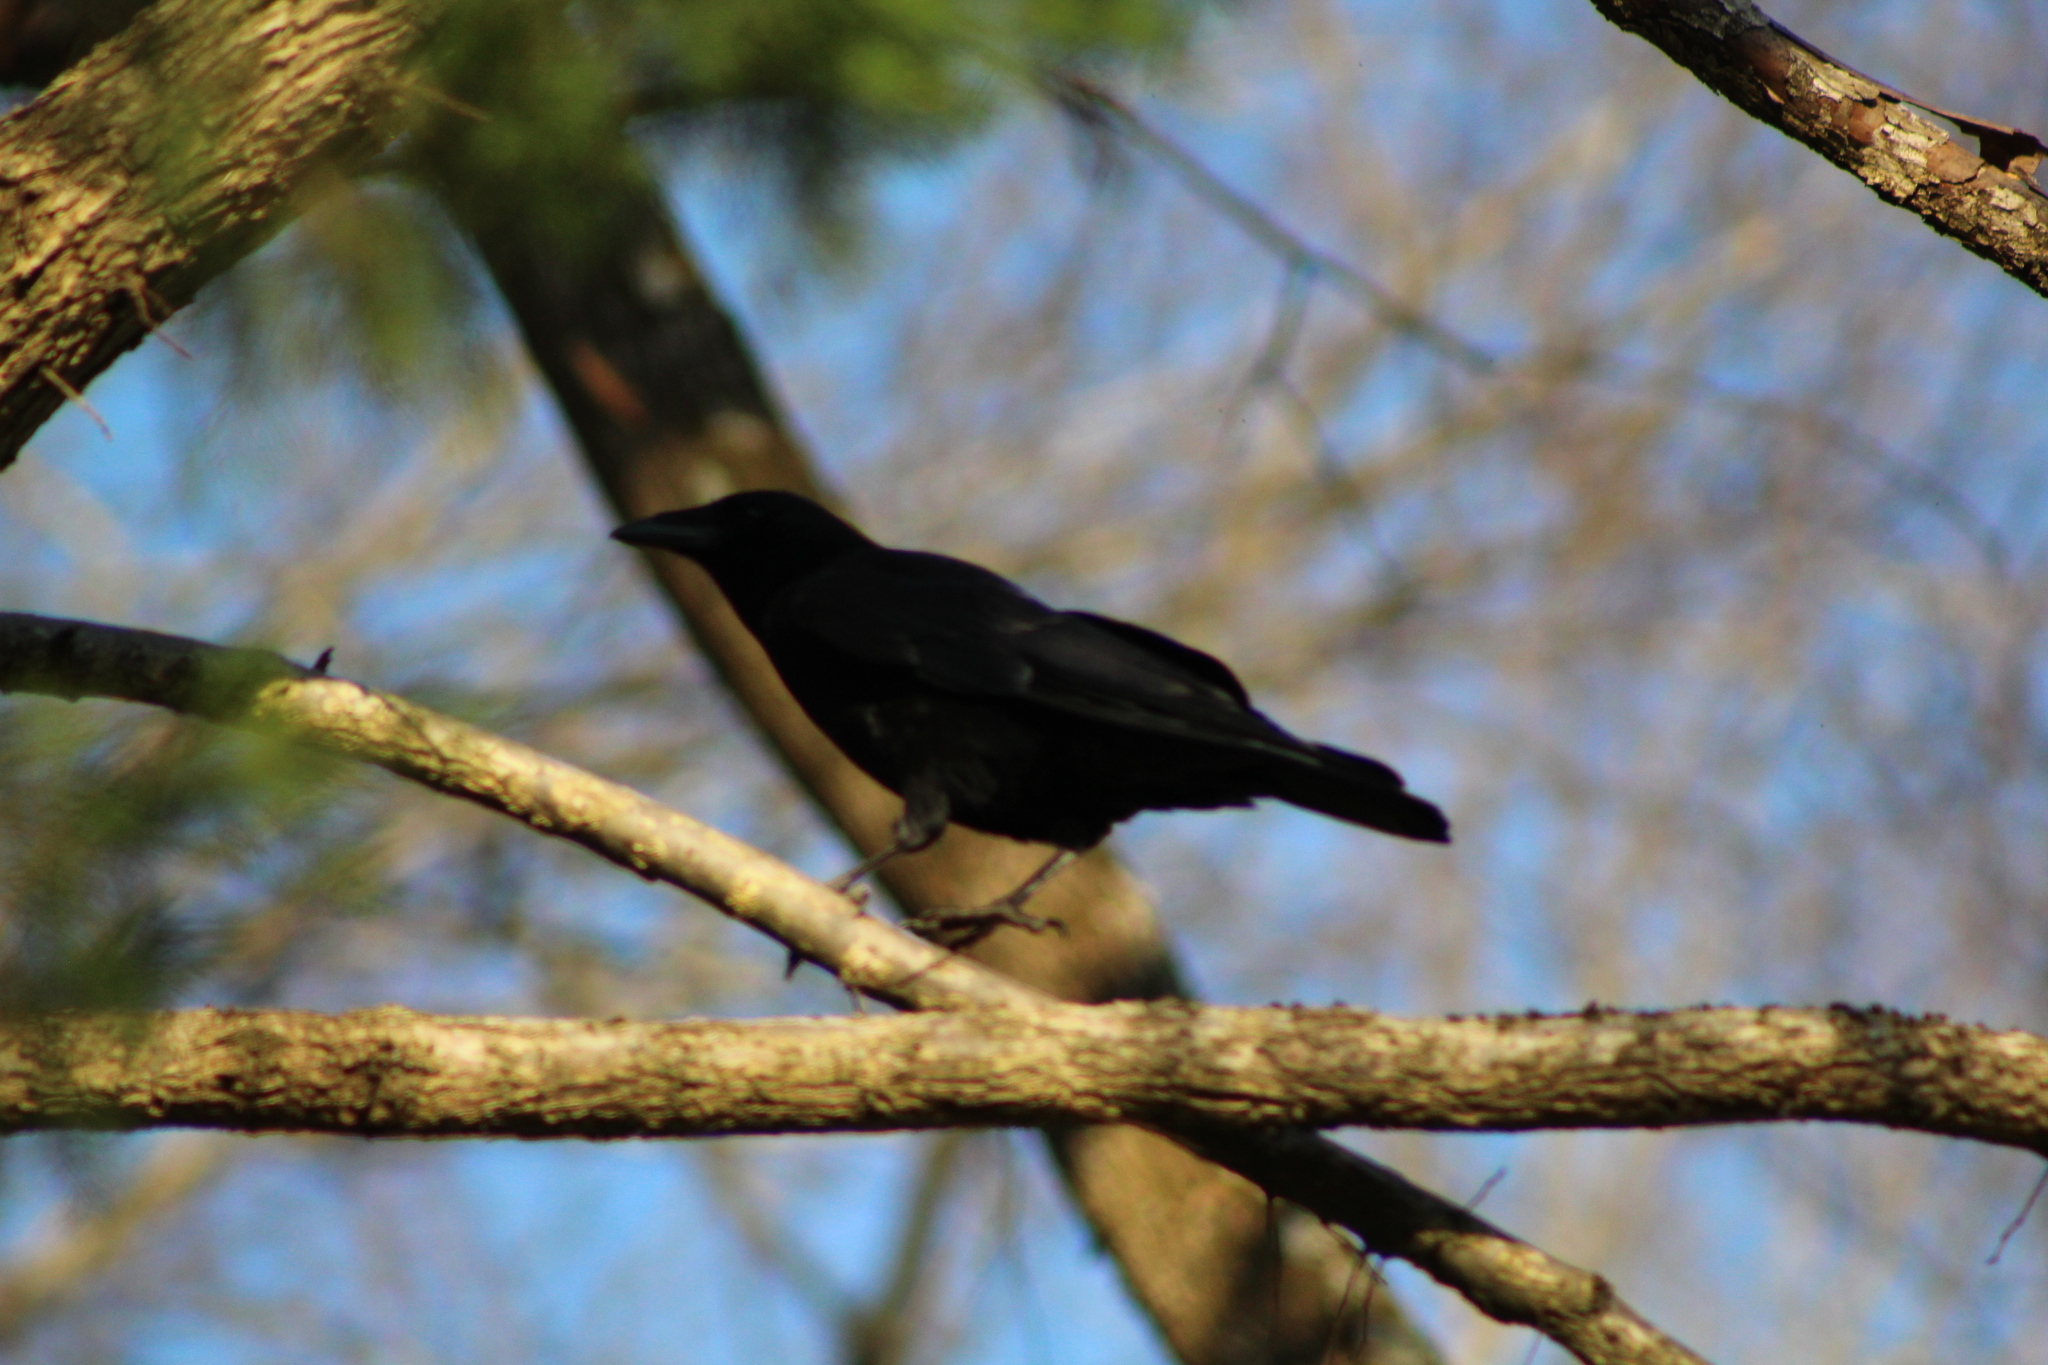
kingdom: Animalia
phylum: Chordata
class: Aves
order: Passeriformes
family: Corvidae
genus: Corvus
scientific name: Corvus brachyrhynchos
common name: American crow
